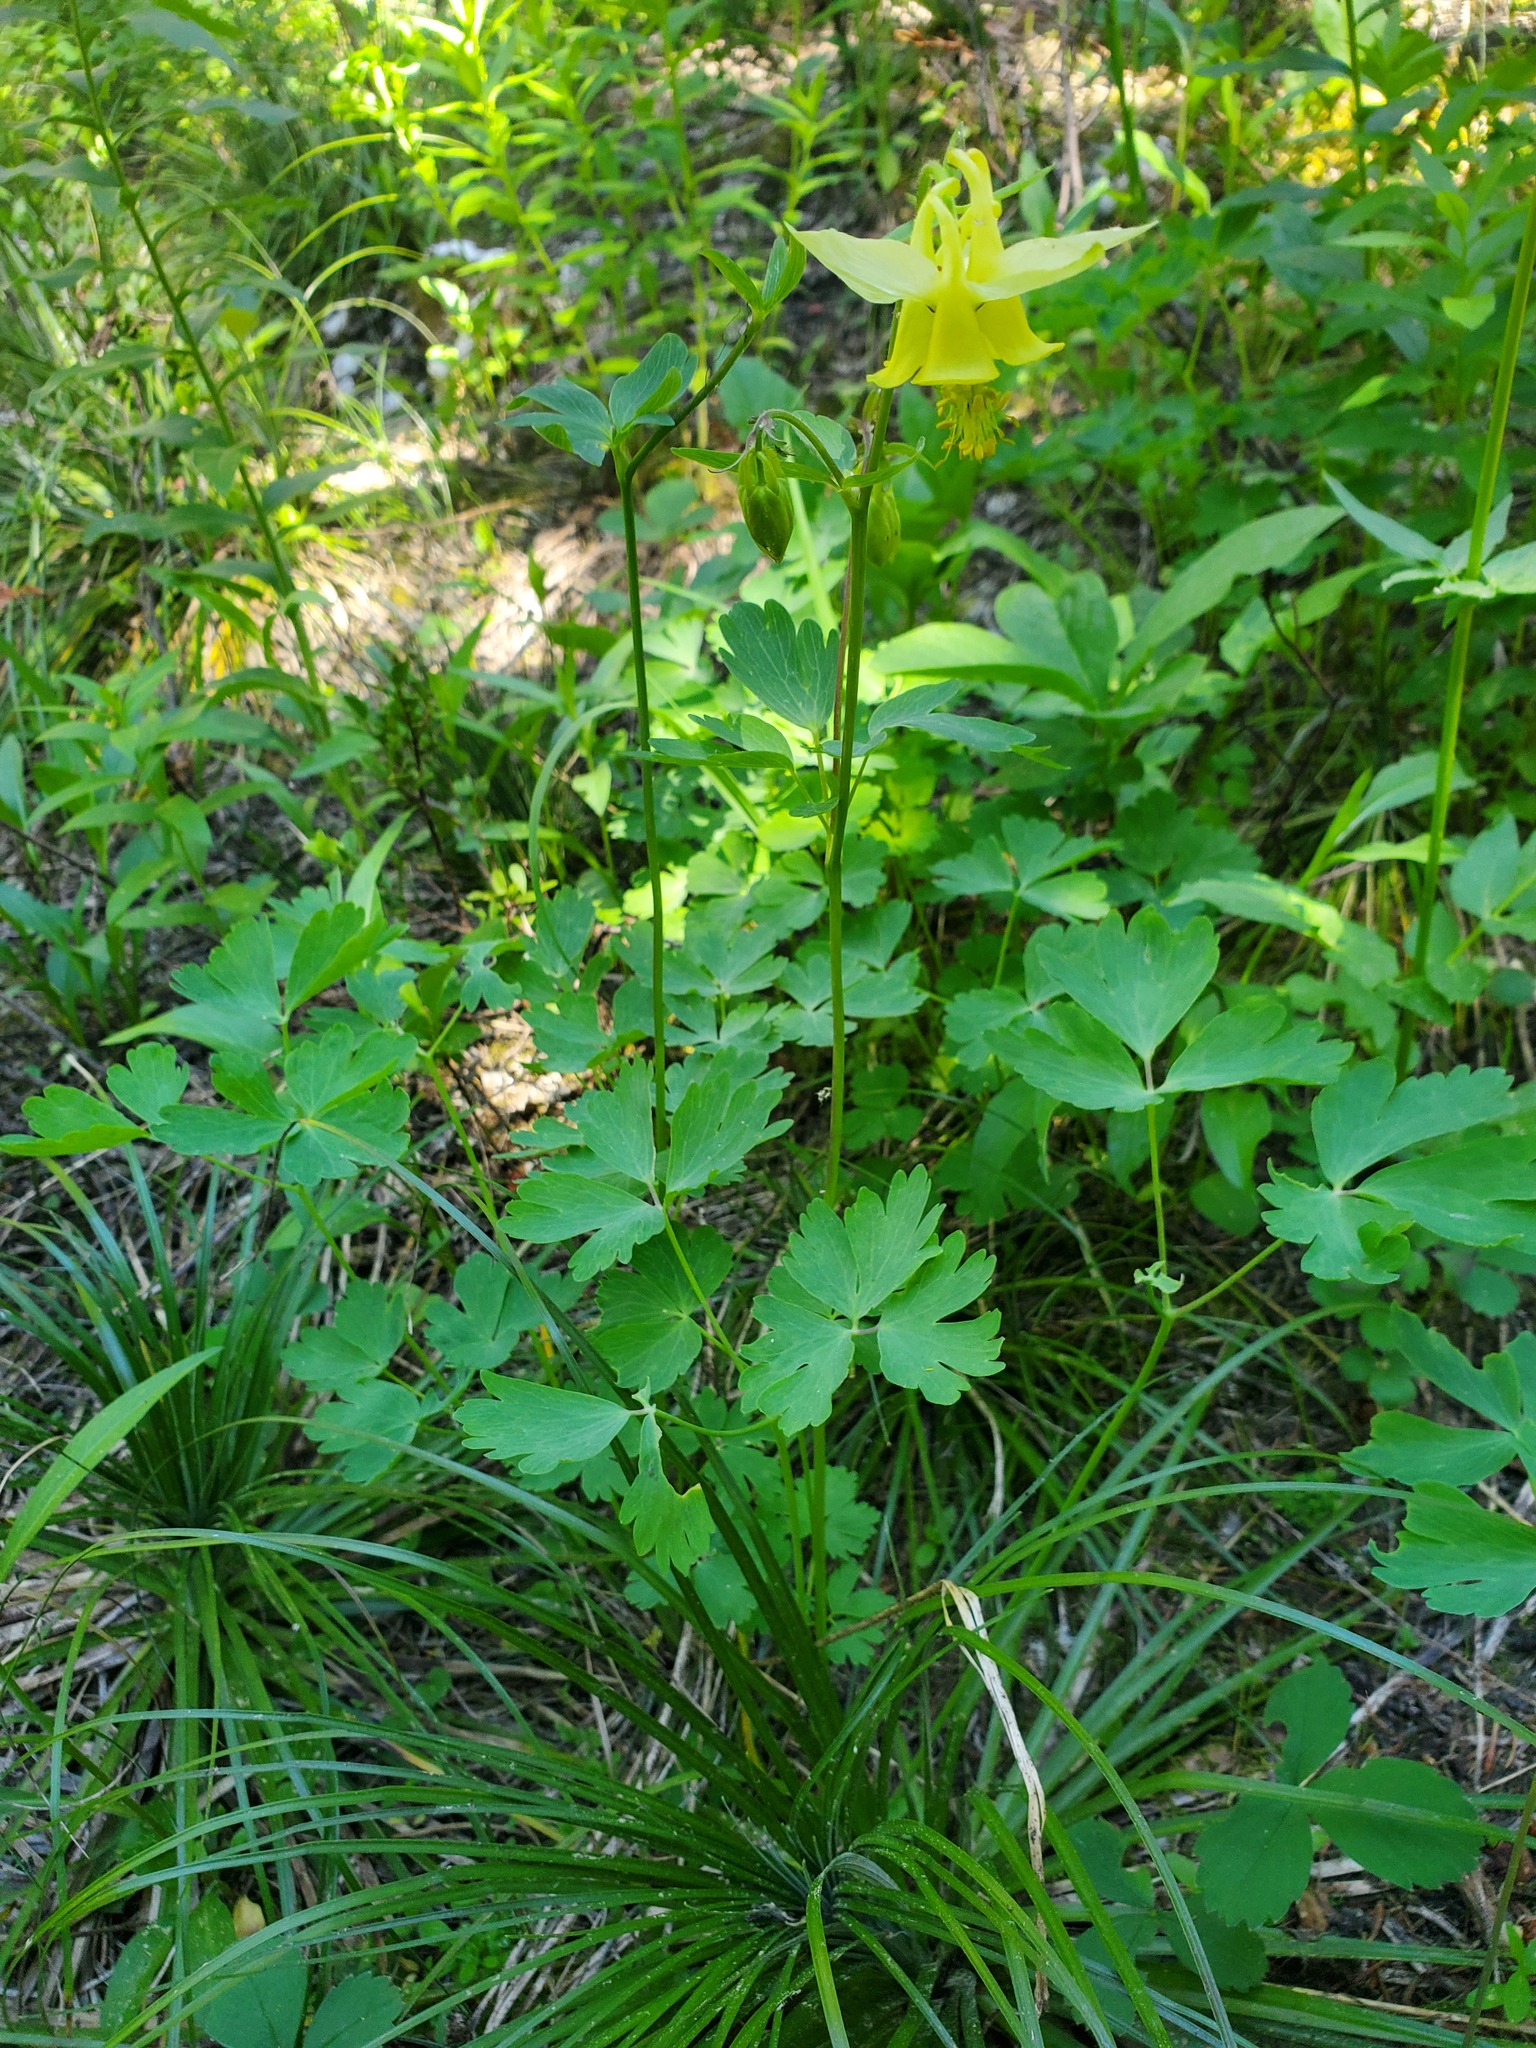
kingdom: Plantae
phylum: Tracheophyta
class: Magnoliopsida
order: Ranunculales
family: Ranunculaceae
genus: Aquilegia
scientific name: Aquilegia flavescens
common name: Yellow columbine
